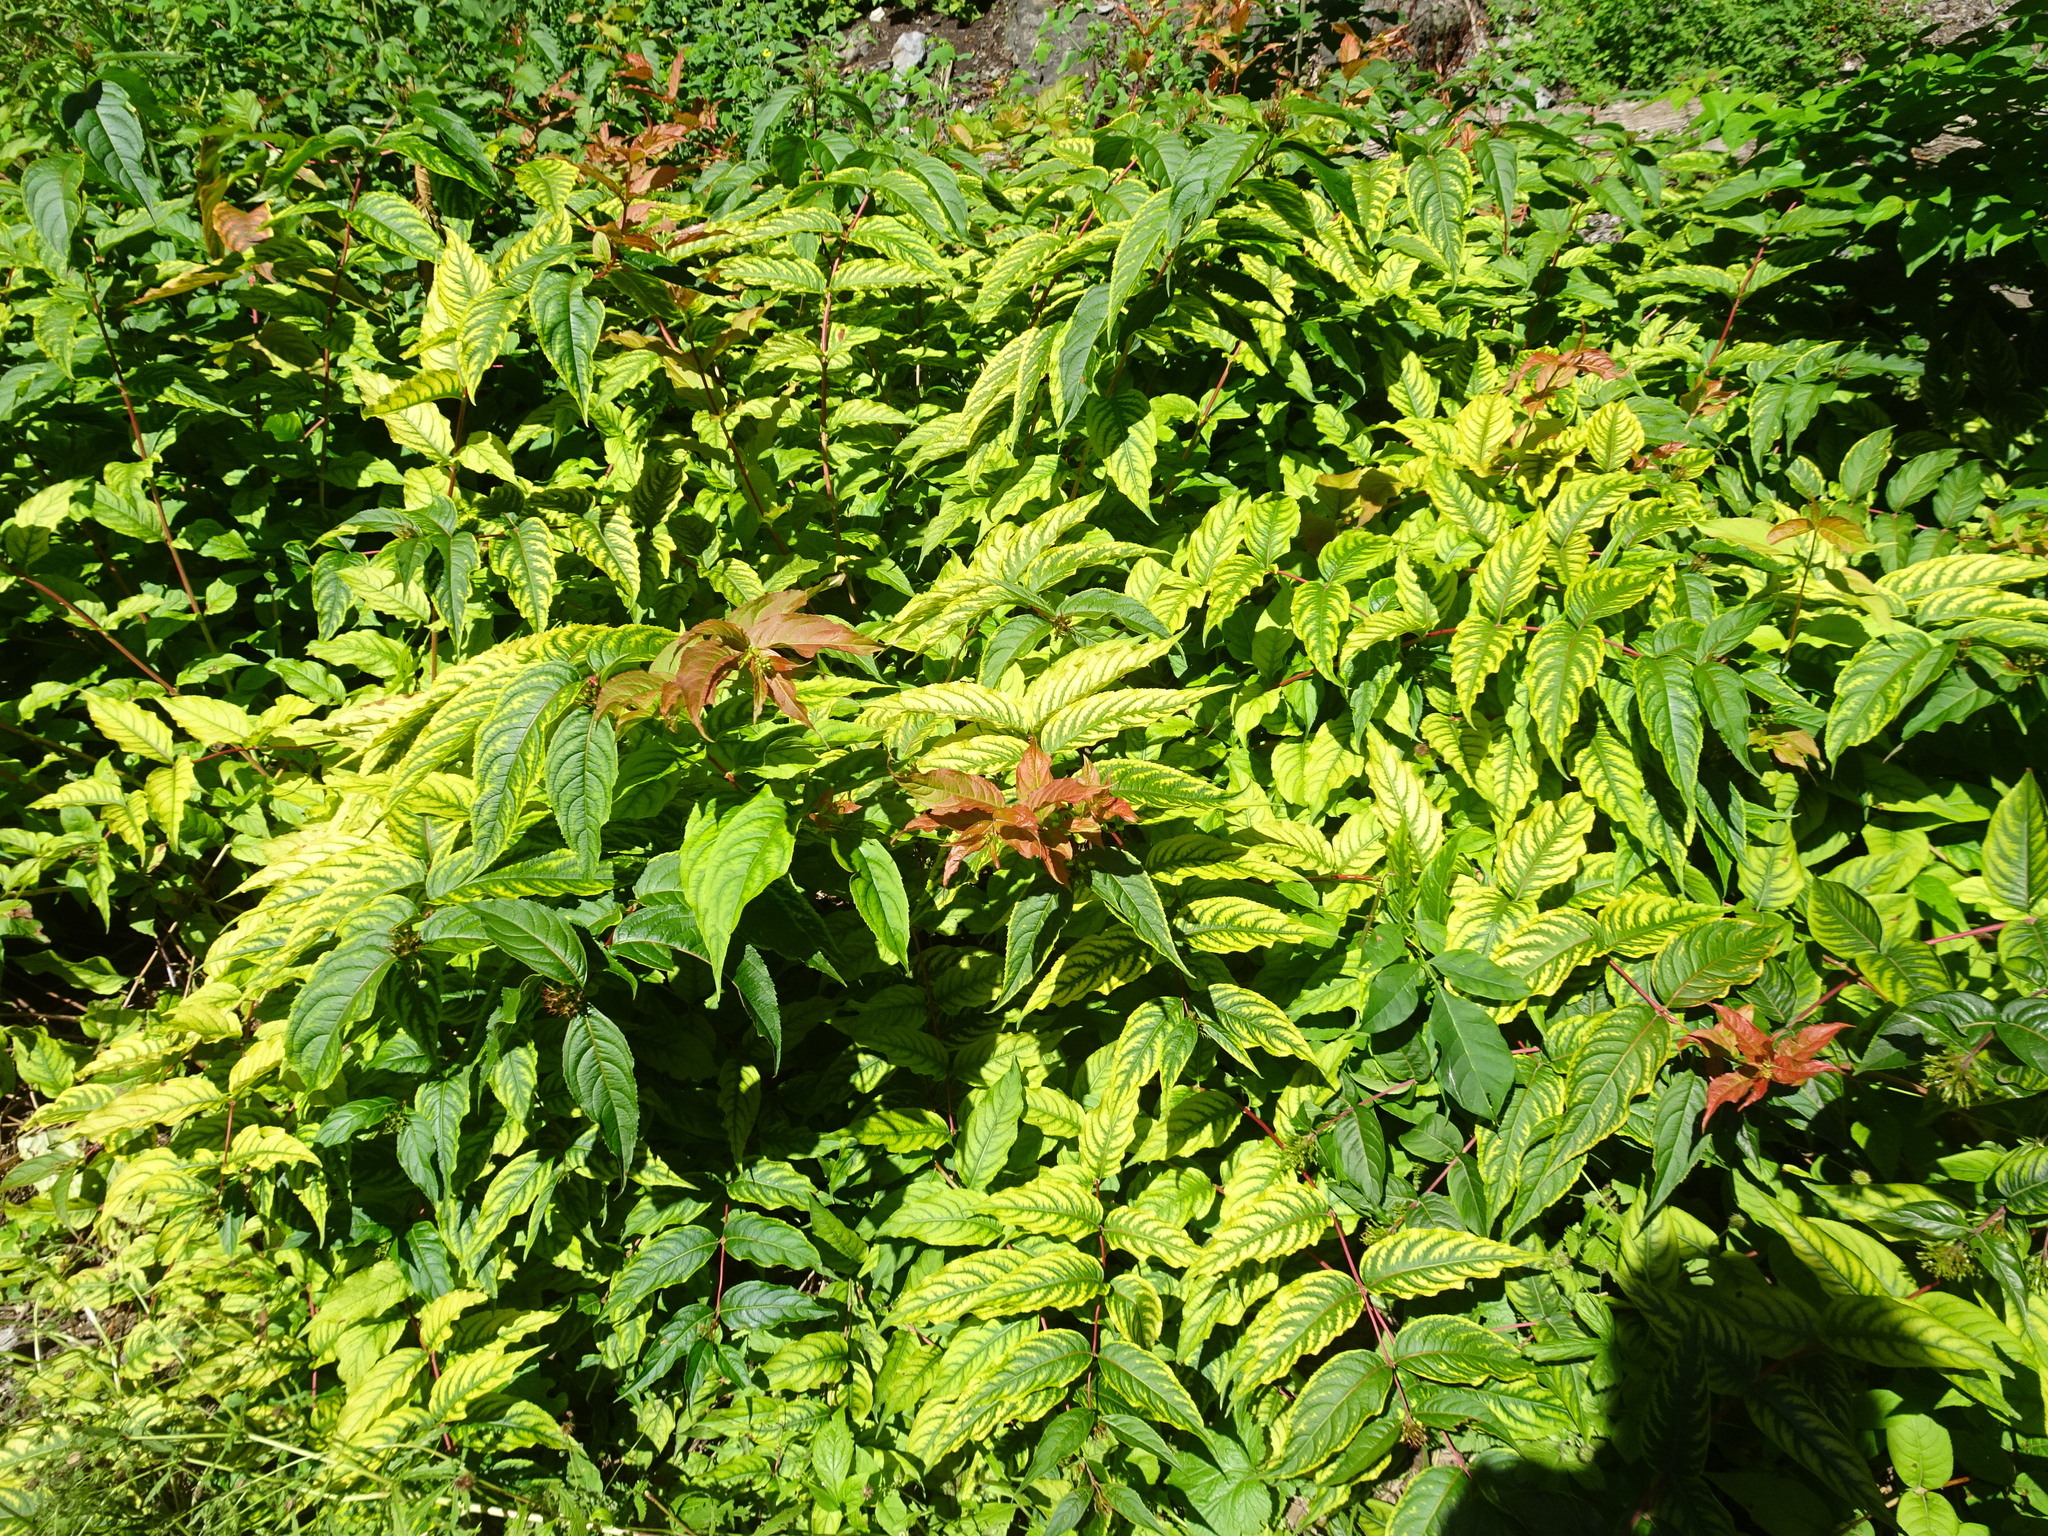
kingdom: Plantae
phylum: Tracheophyta
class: Magnoliopsida
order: Dipsacales
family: Caprifoliaceae
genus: Diervilla
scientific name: Diervilla lonicera
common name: Bush-honeysuckle
